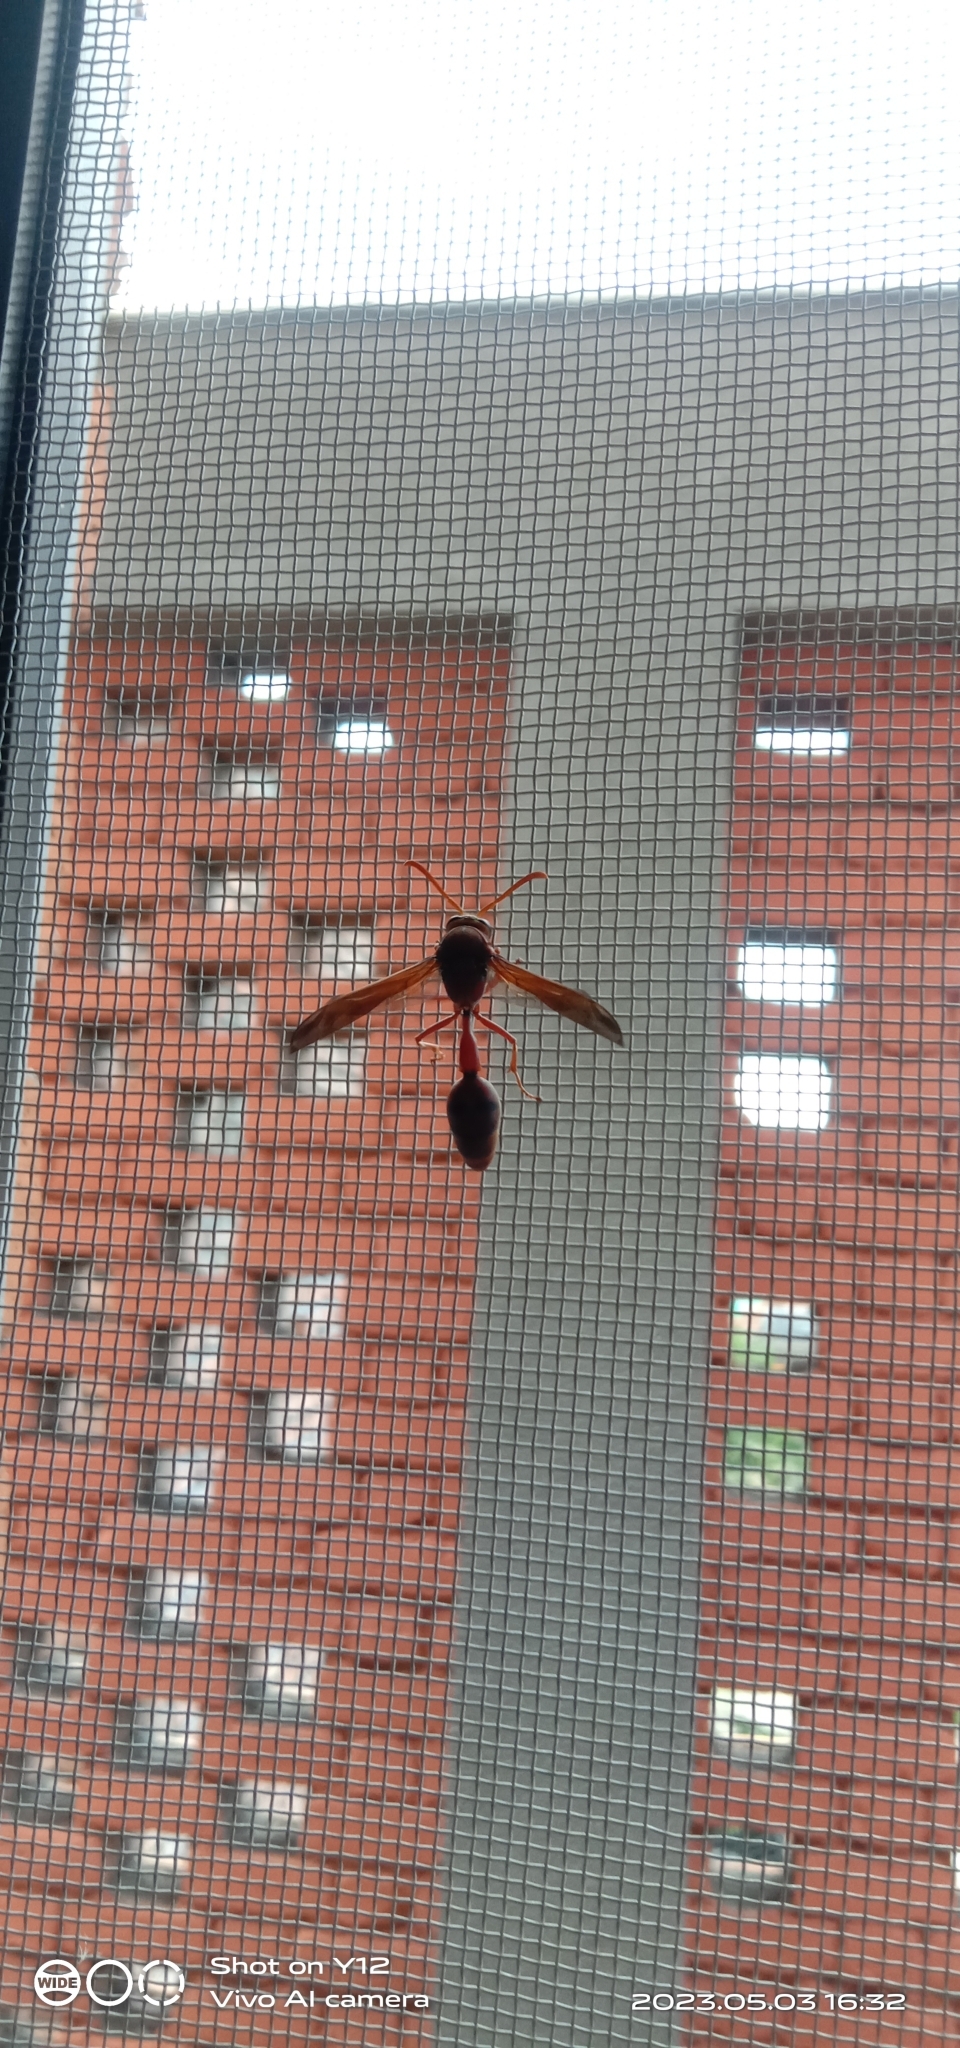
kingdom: Animalia
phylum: Arthropoda
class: Insecta
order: Hymenoptera
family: Eumenidae
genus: Delta
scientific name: Delta conoideum
